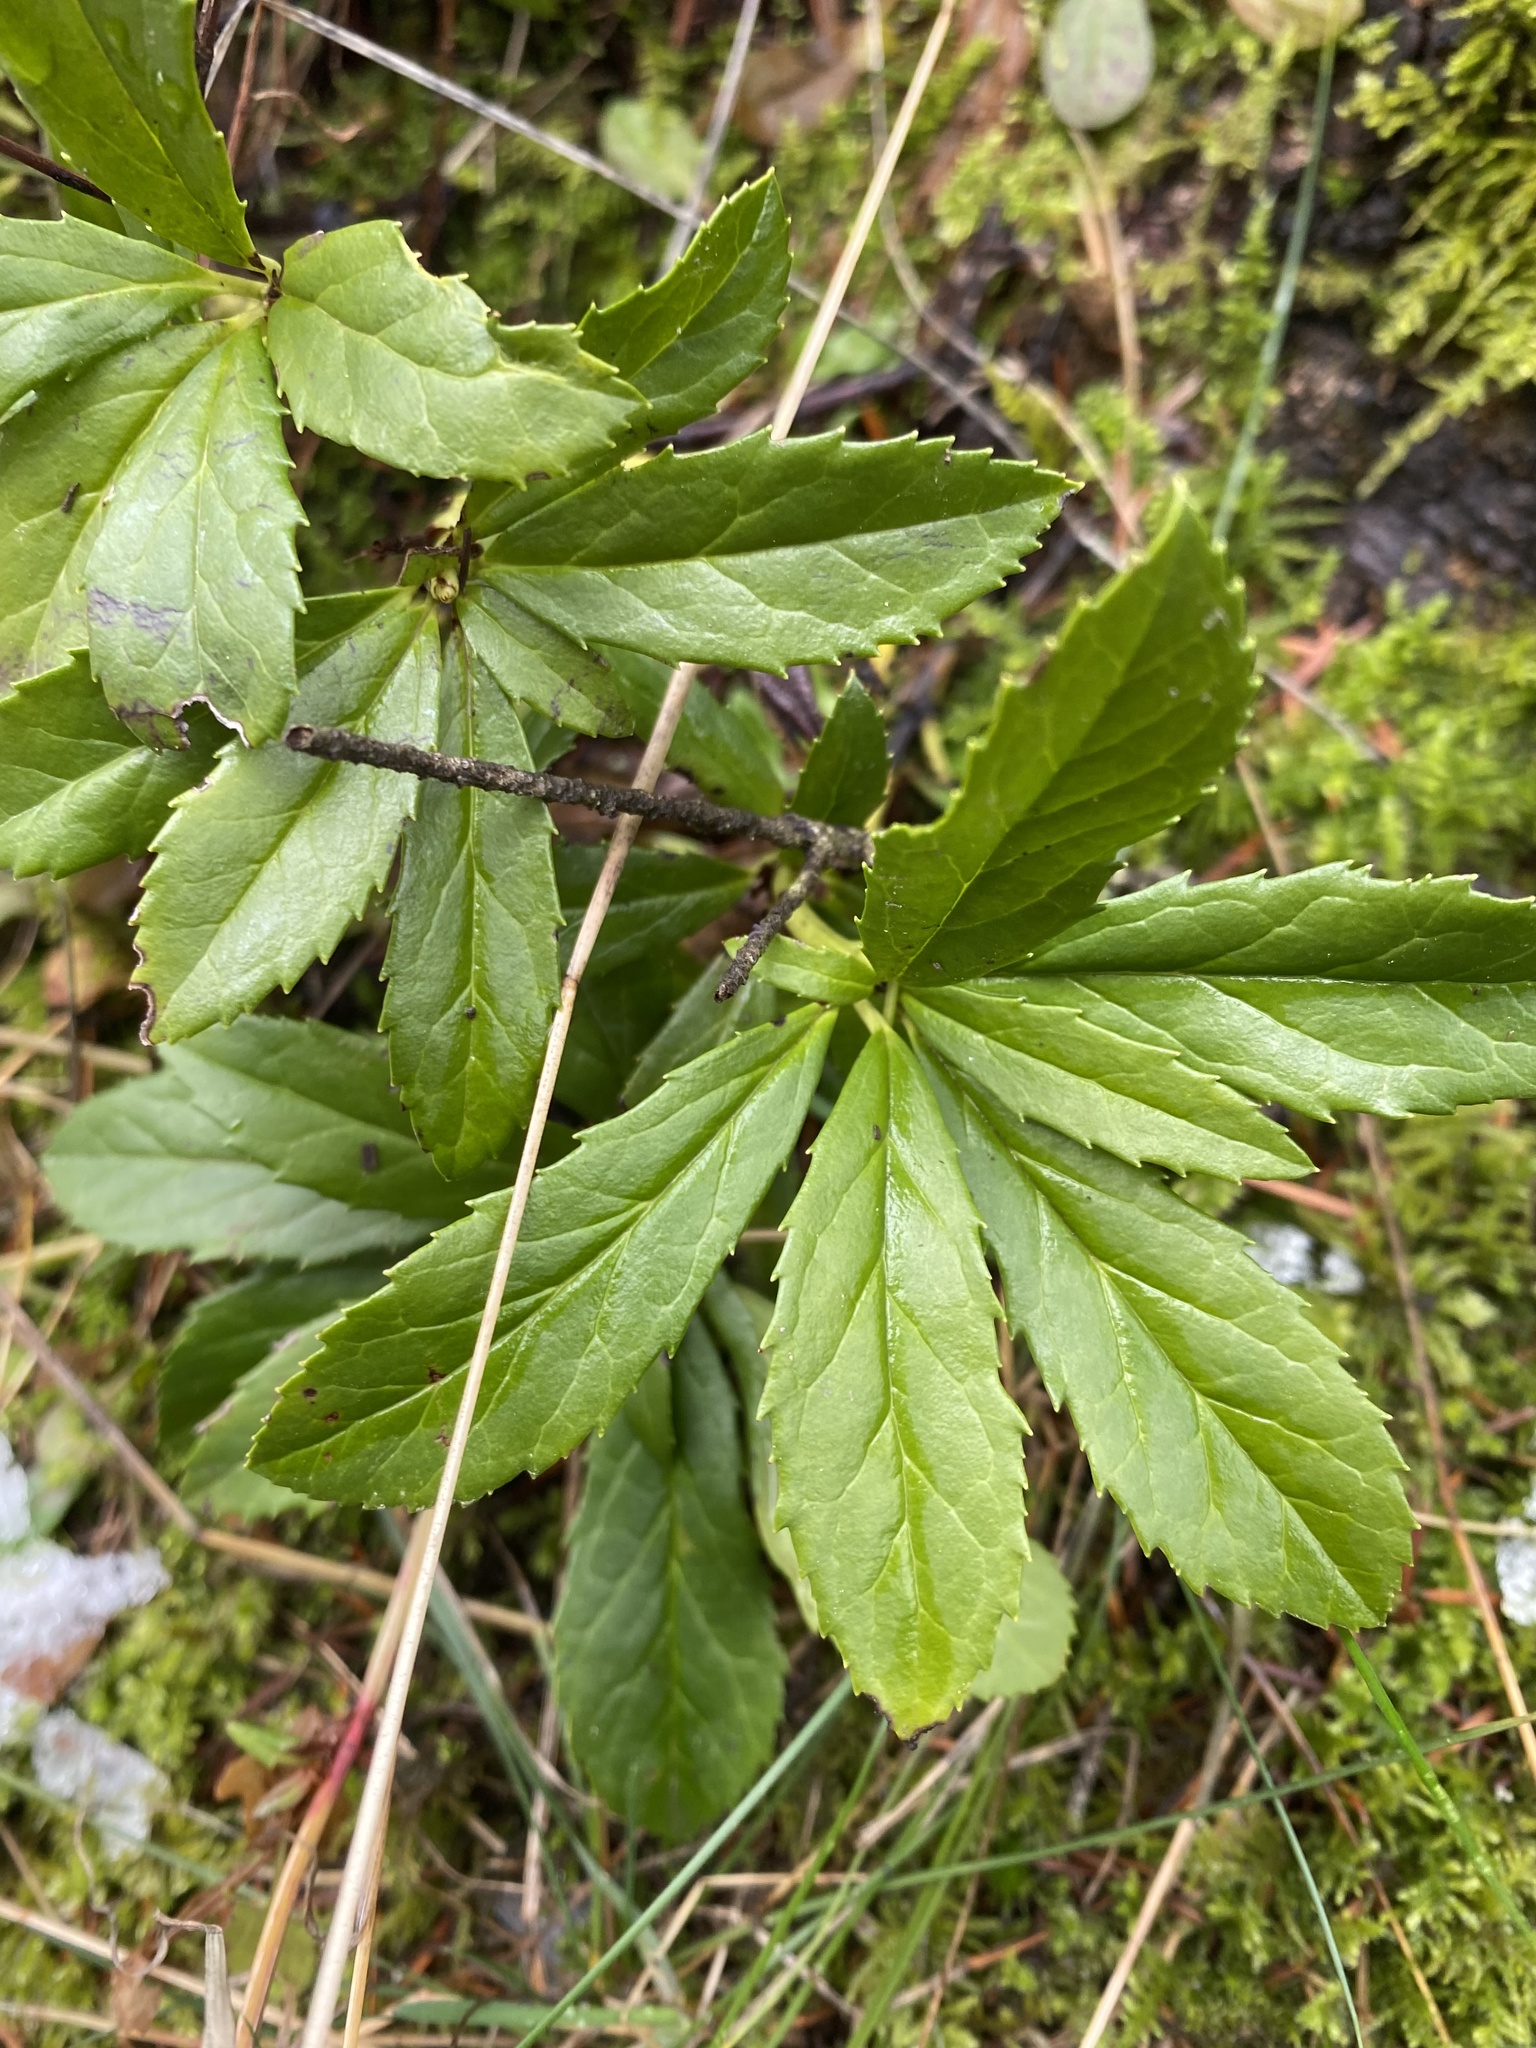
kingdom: Plantae
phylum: Tracheophyta
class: Magnoliopsida
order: Ericales
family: Ericaceae
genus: Chimaphila
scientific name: Chimaphila umbellata
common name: Pipsissewa
